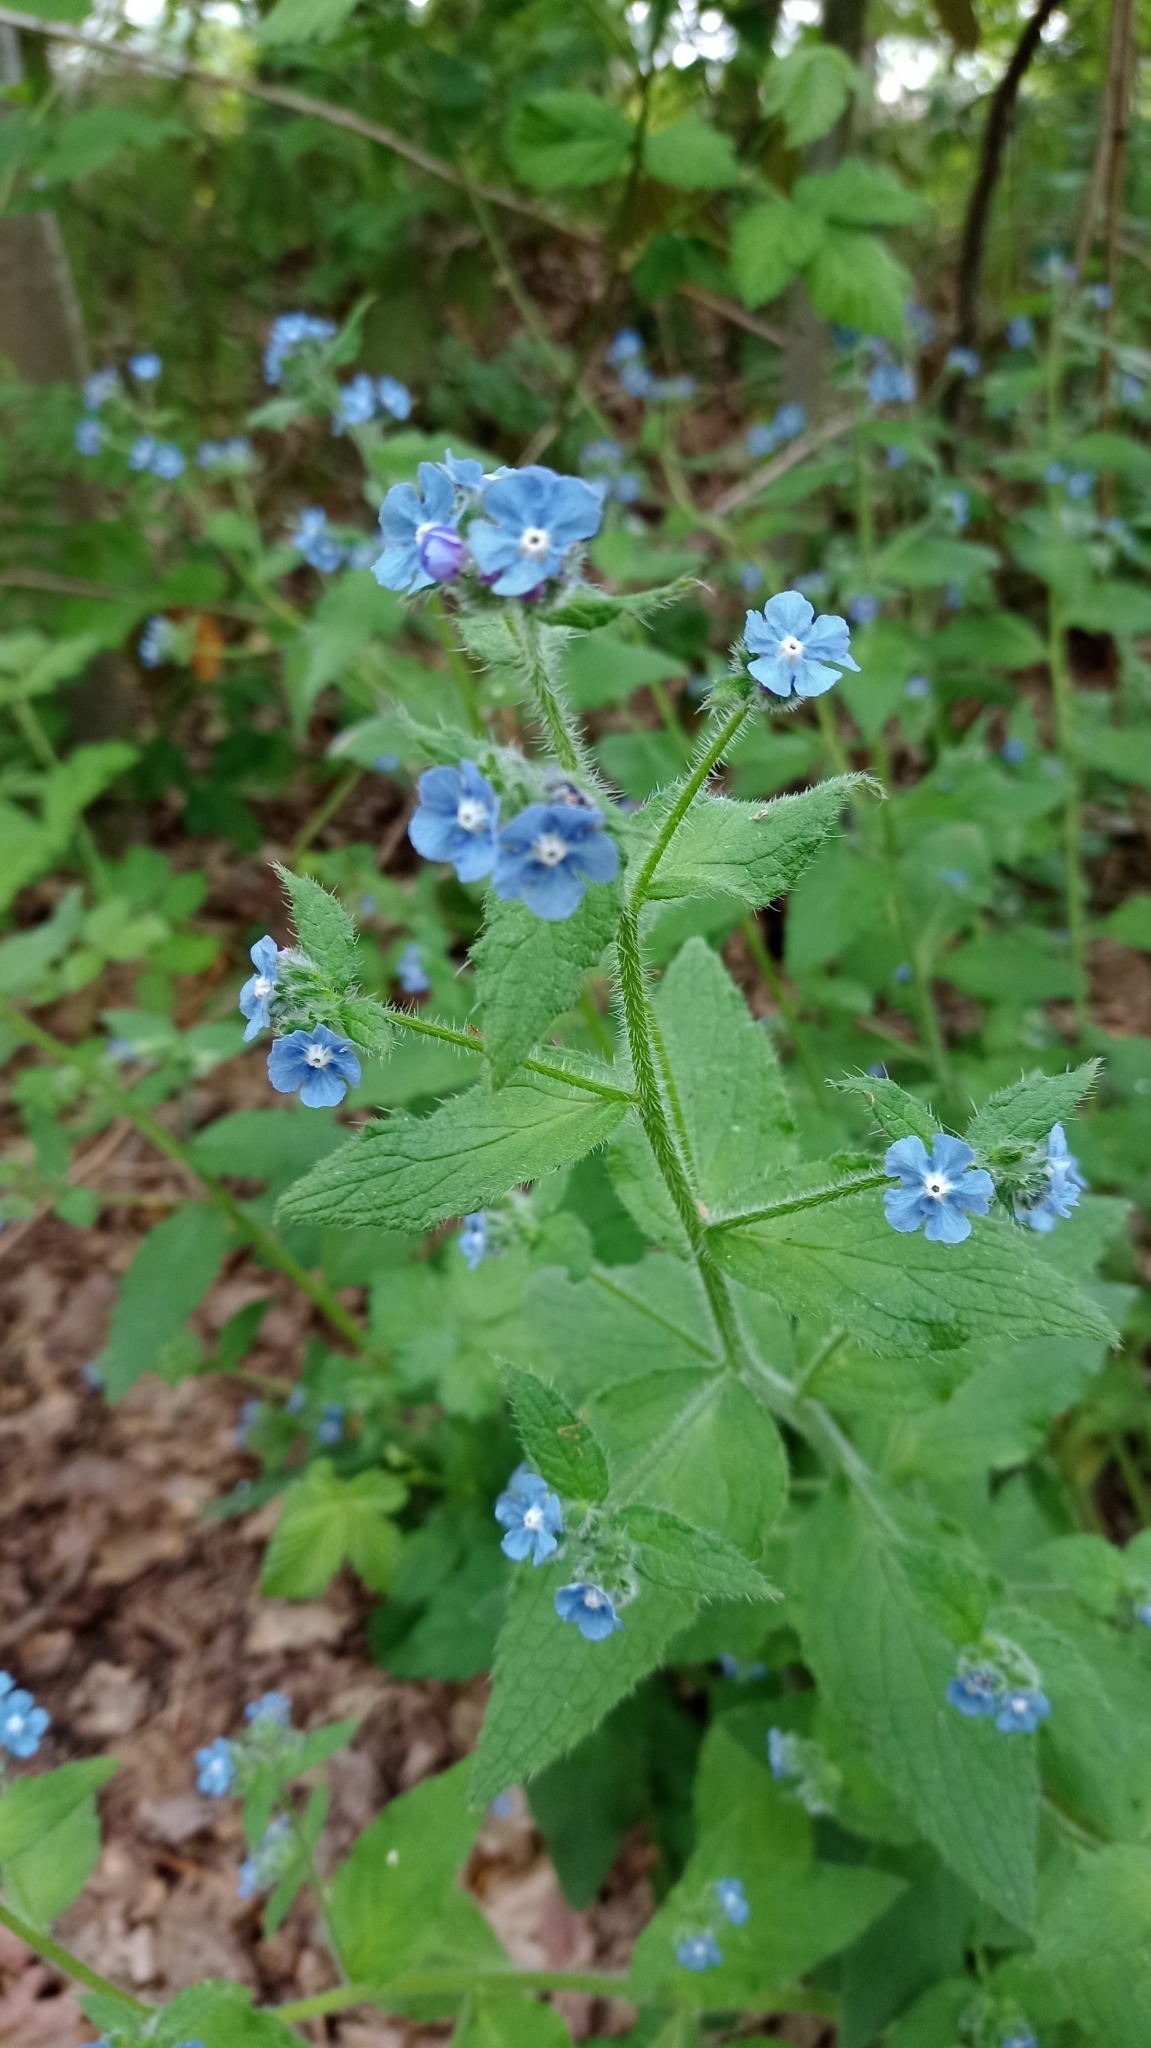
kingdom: Plantae
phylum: Tracheophyta
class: Magnoliopsida
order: Boraginales
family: Boraginaceae
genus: Pentaglottis
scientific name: Pentaglottis sempervirens
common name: Green alkanet
